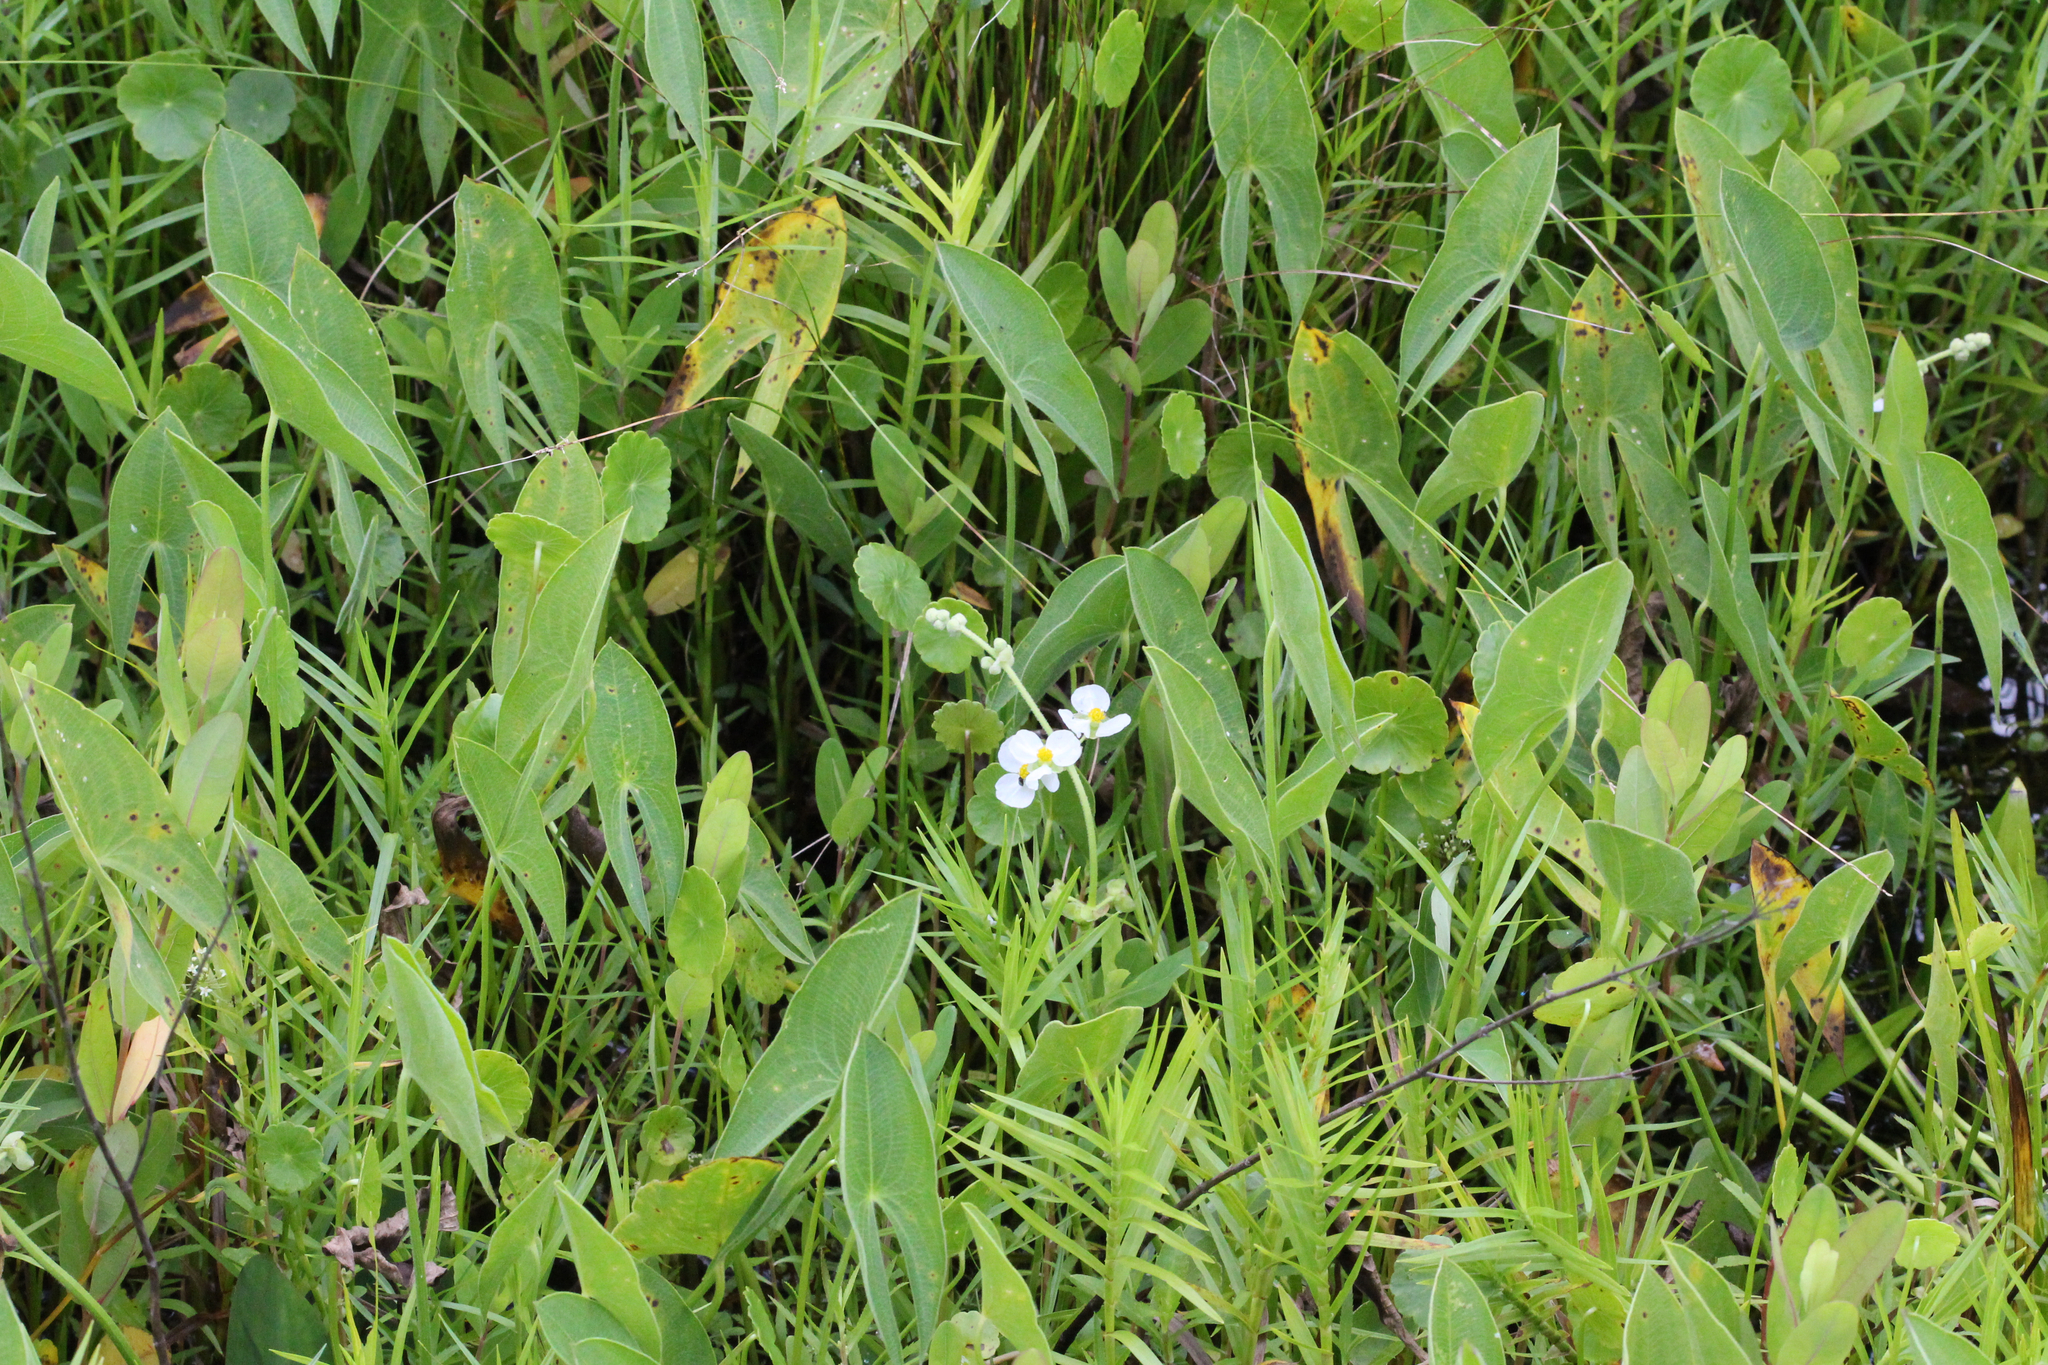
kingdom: Plantae
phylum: Tracheophyta
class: Liliopsida
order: Alismatales
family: Alismataceae
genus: Sagittaria
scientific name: Sagittaria latifolia
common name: Duck-potato
